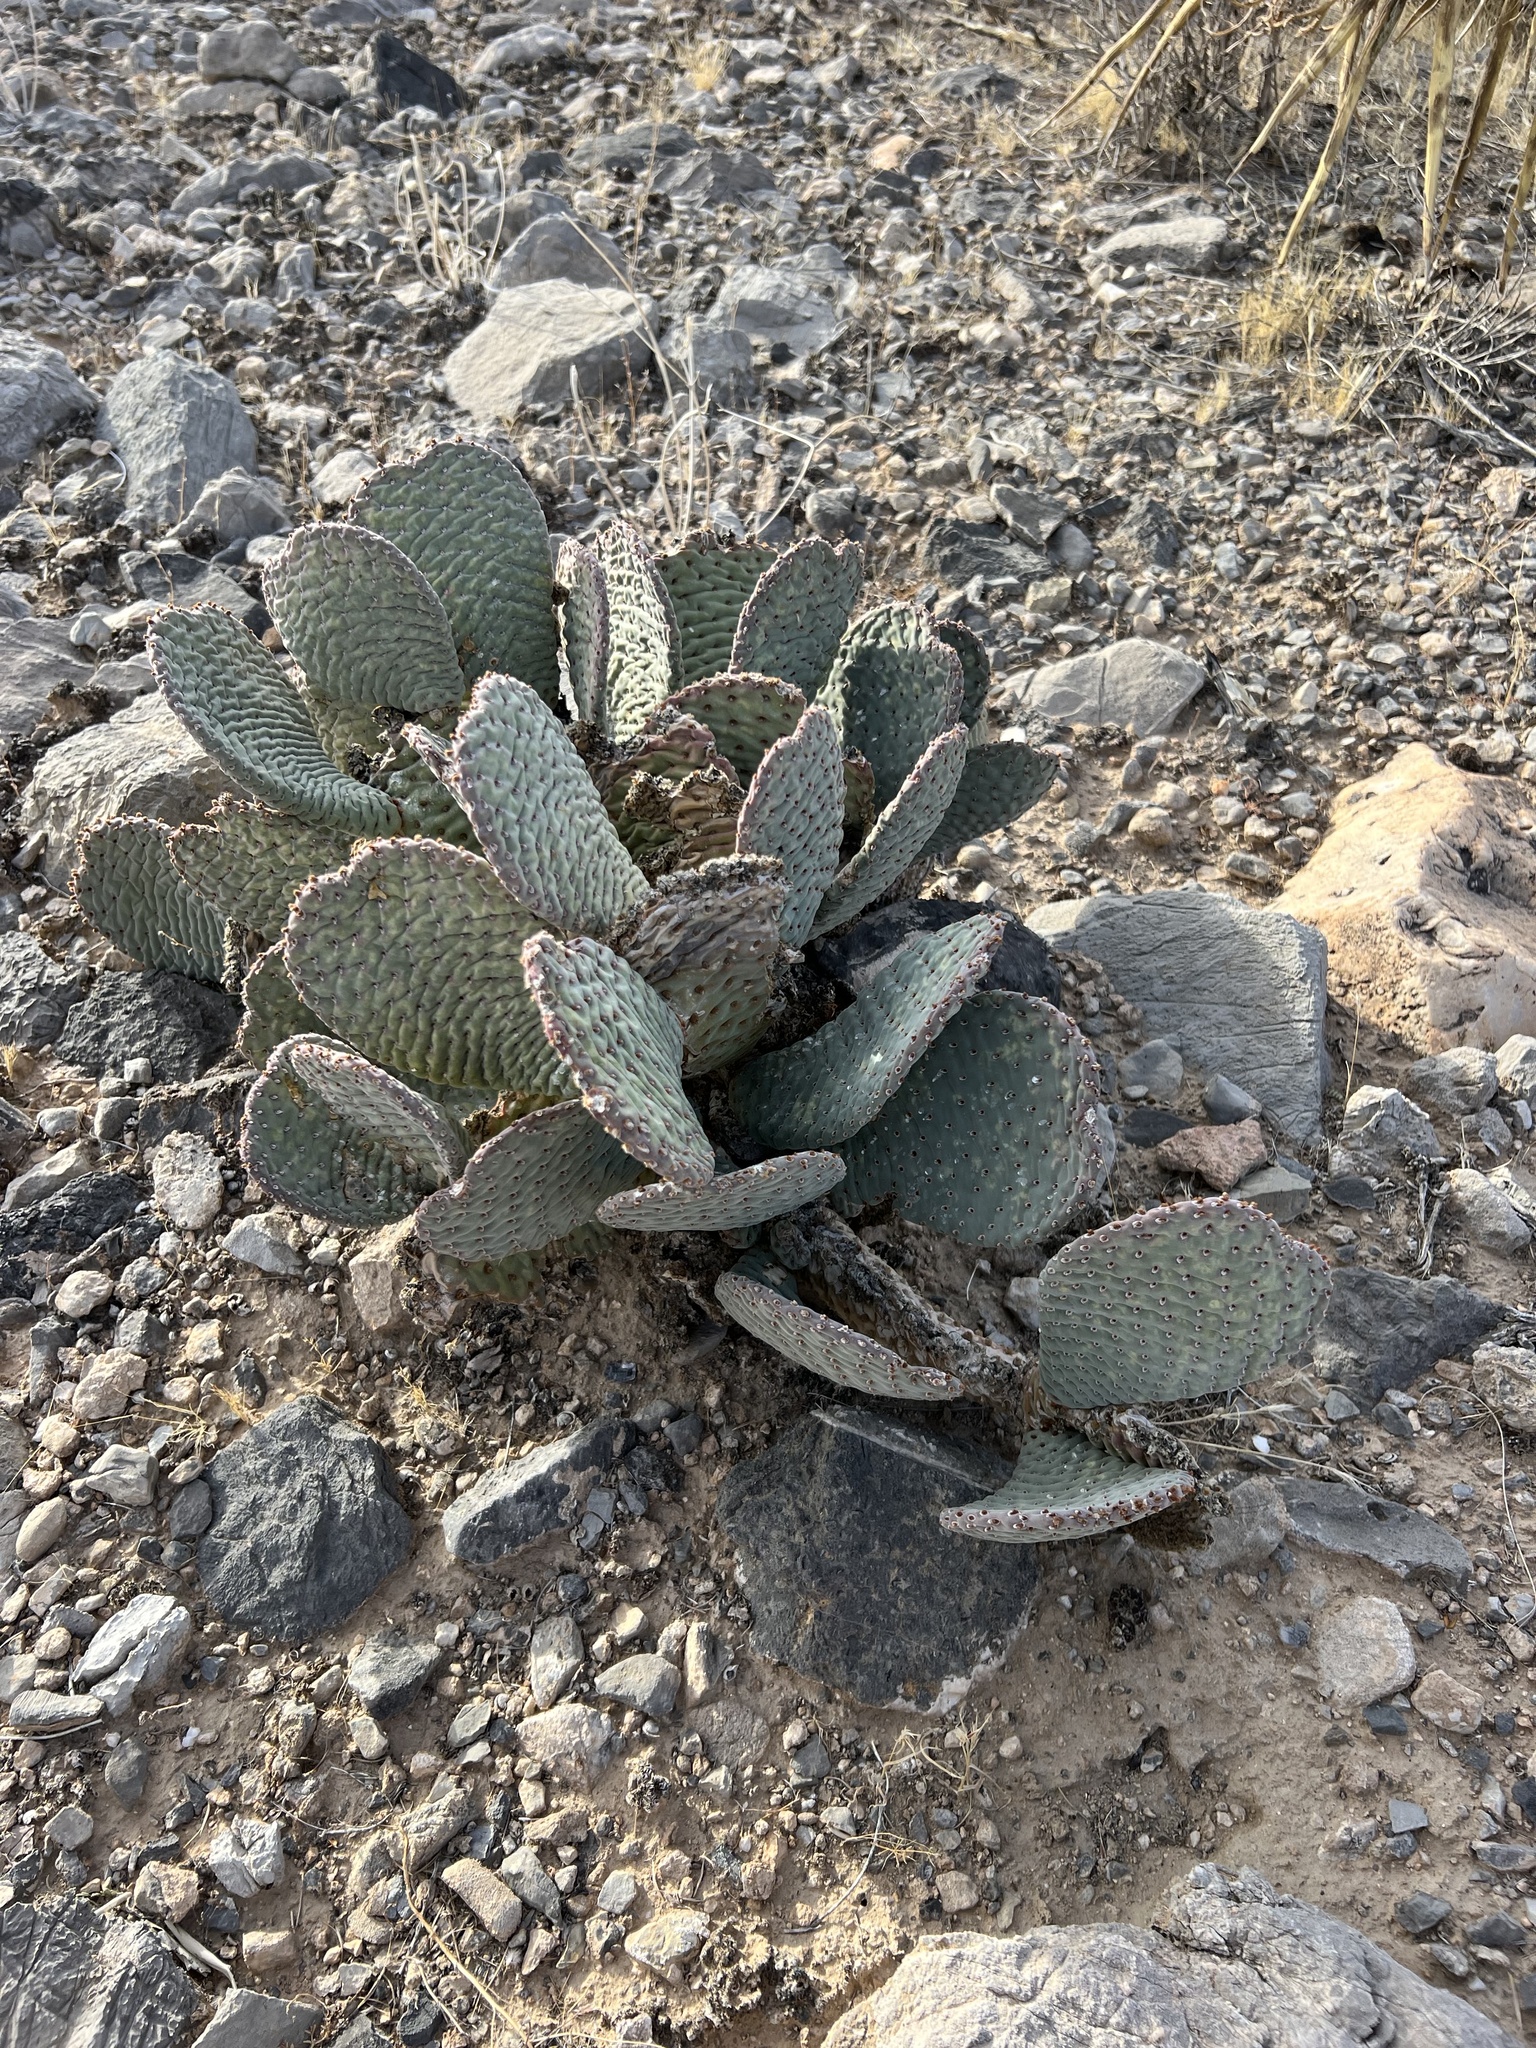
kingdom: Plantae
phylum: Tracheophyta
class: Magnoliopsida
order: Caryophyllales
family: Cactaceae
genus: Opuntia
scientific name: Opuntia basilaris
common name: Beavertail prickly-pear
